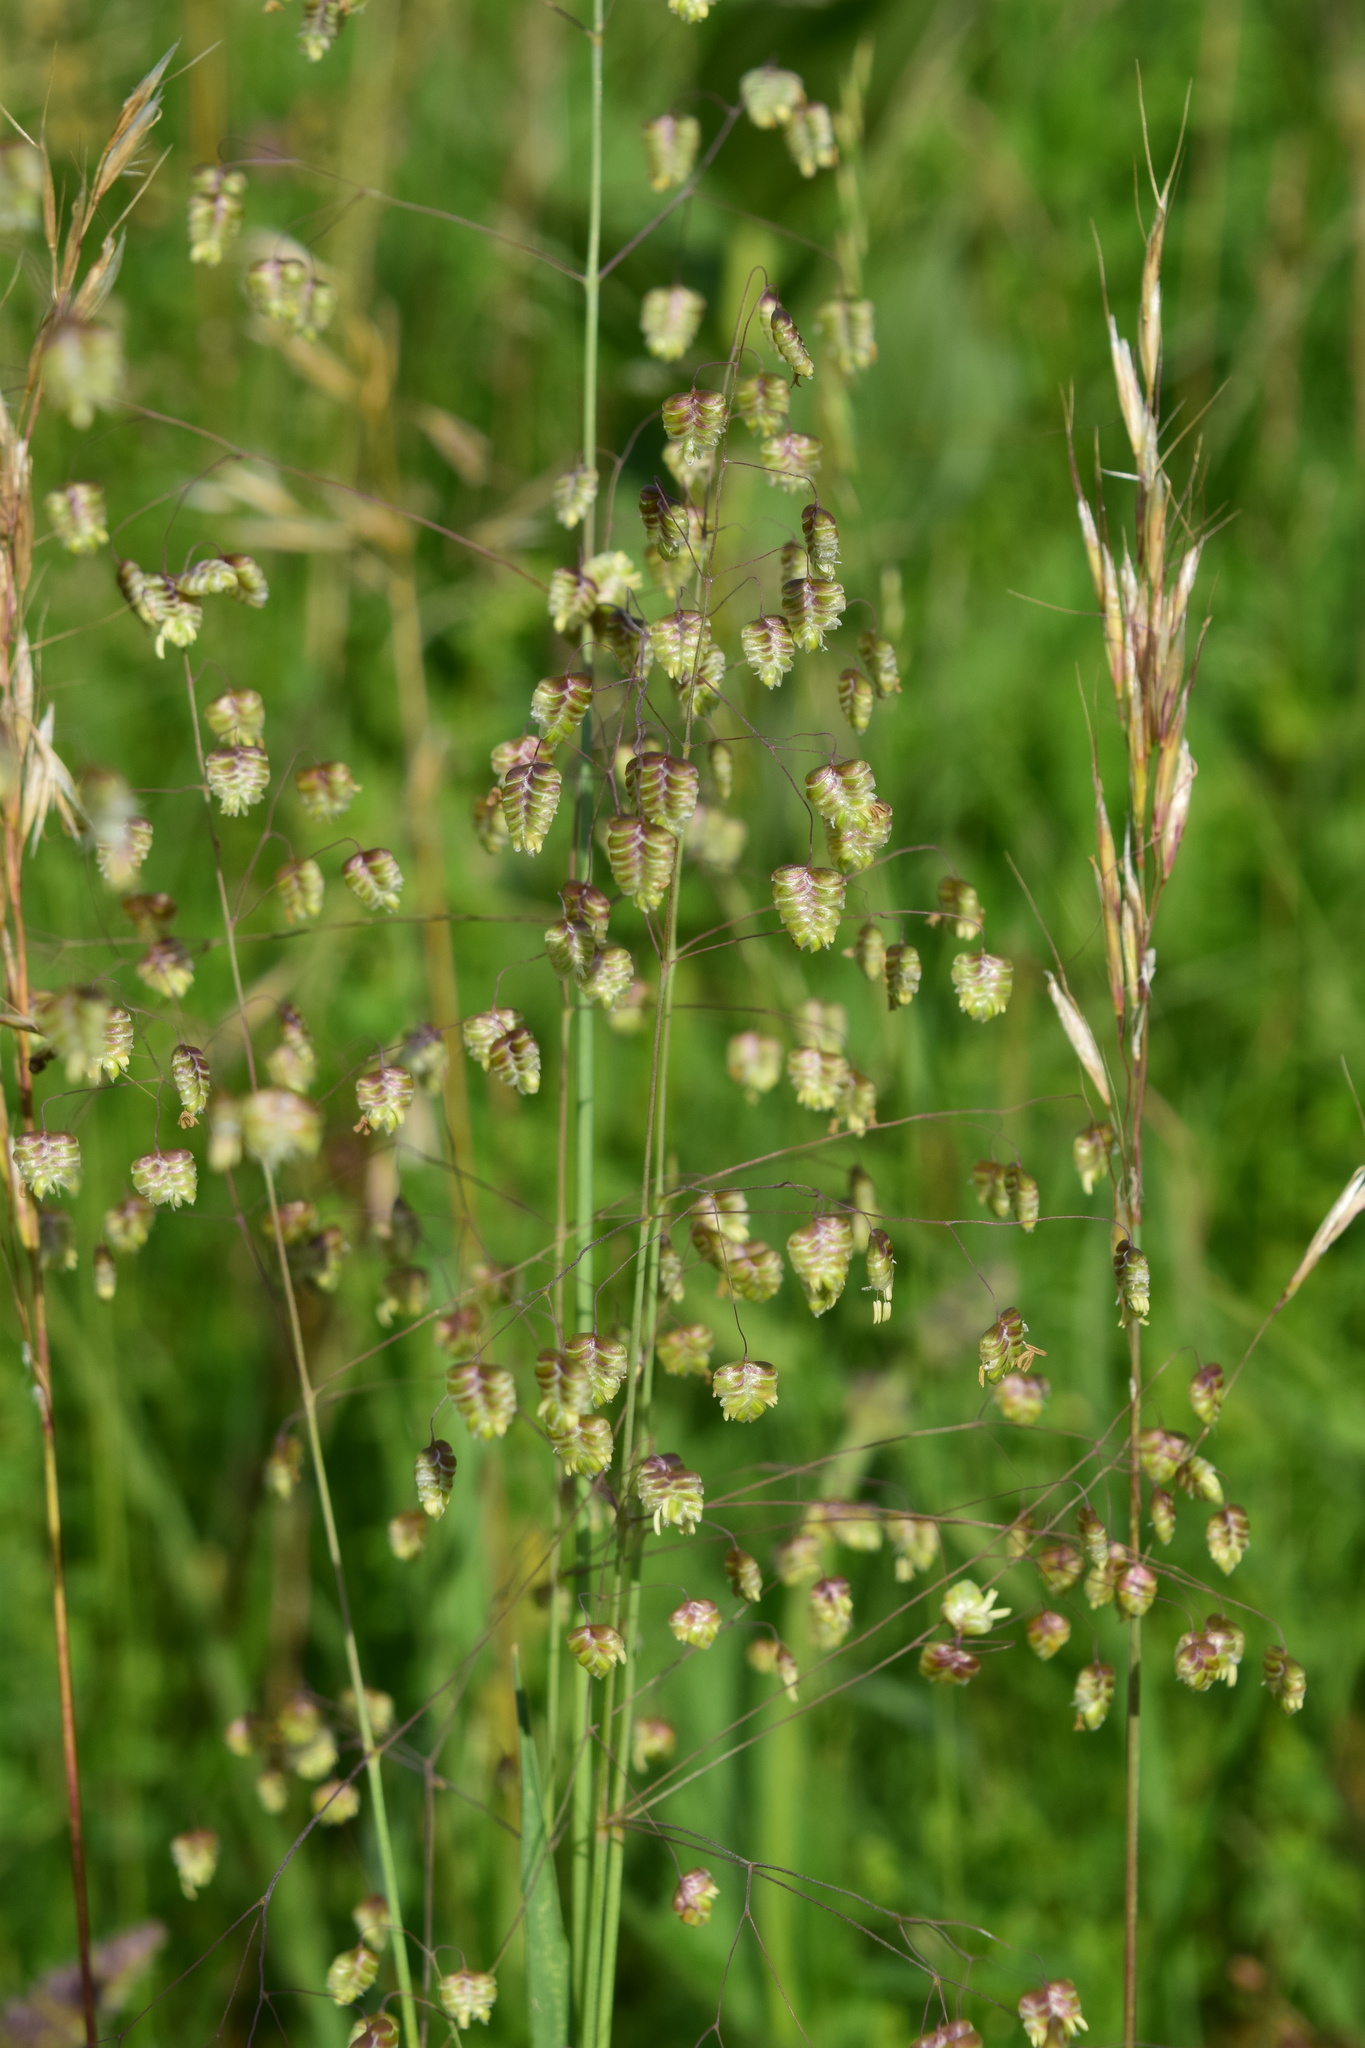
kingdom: Plantae
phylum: Tracheophyta
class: Liliopsida
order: Poales
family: Poaceae
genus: Briza
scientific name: Briza media
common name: Quaking grass
